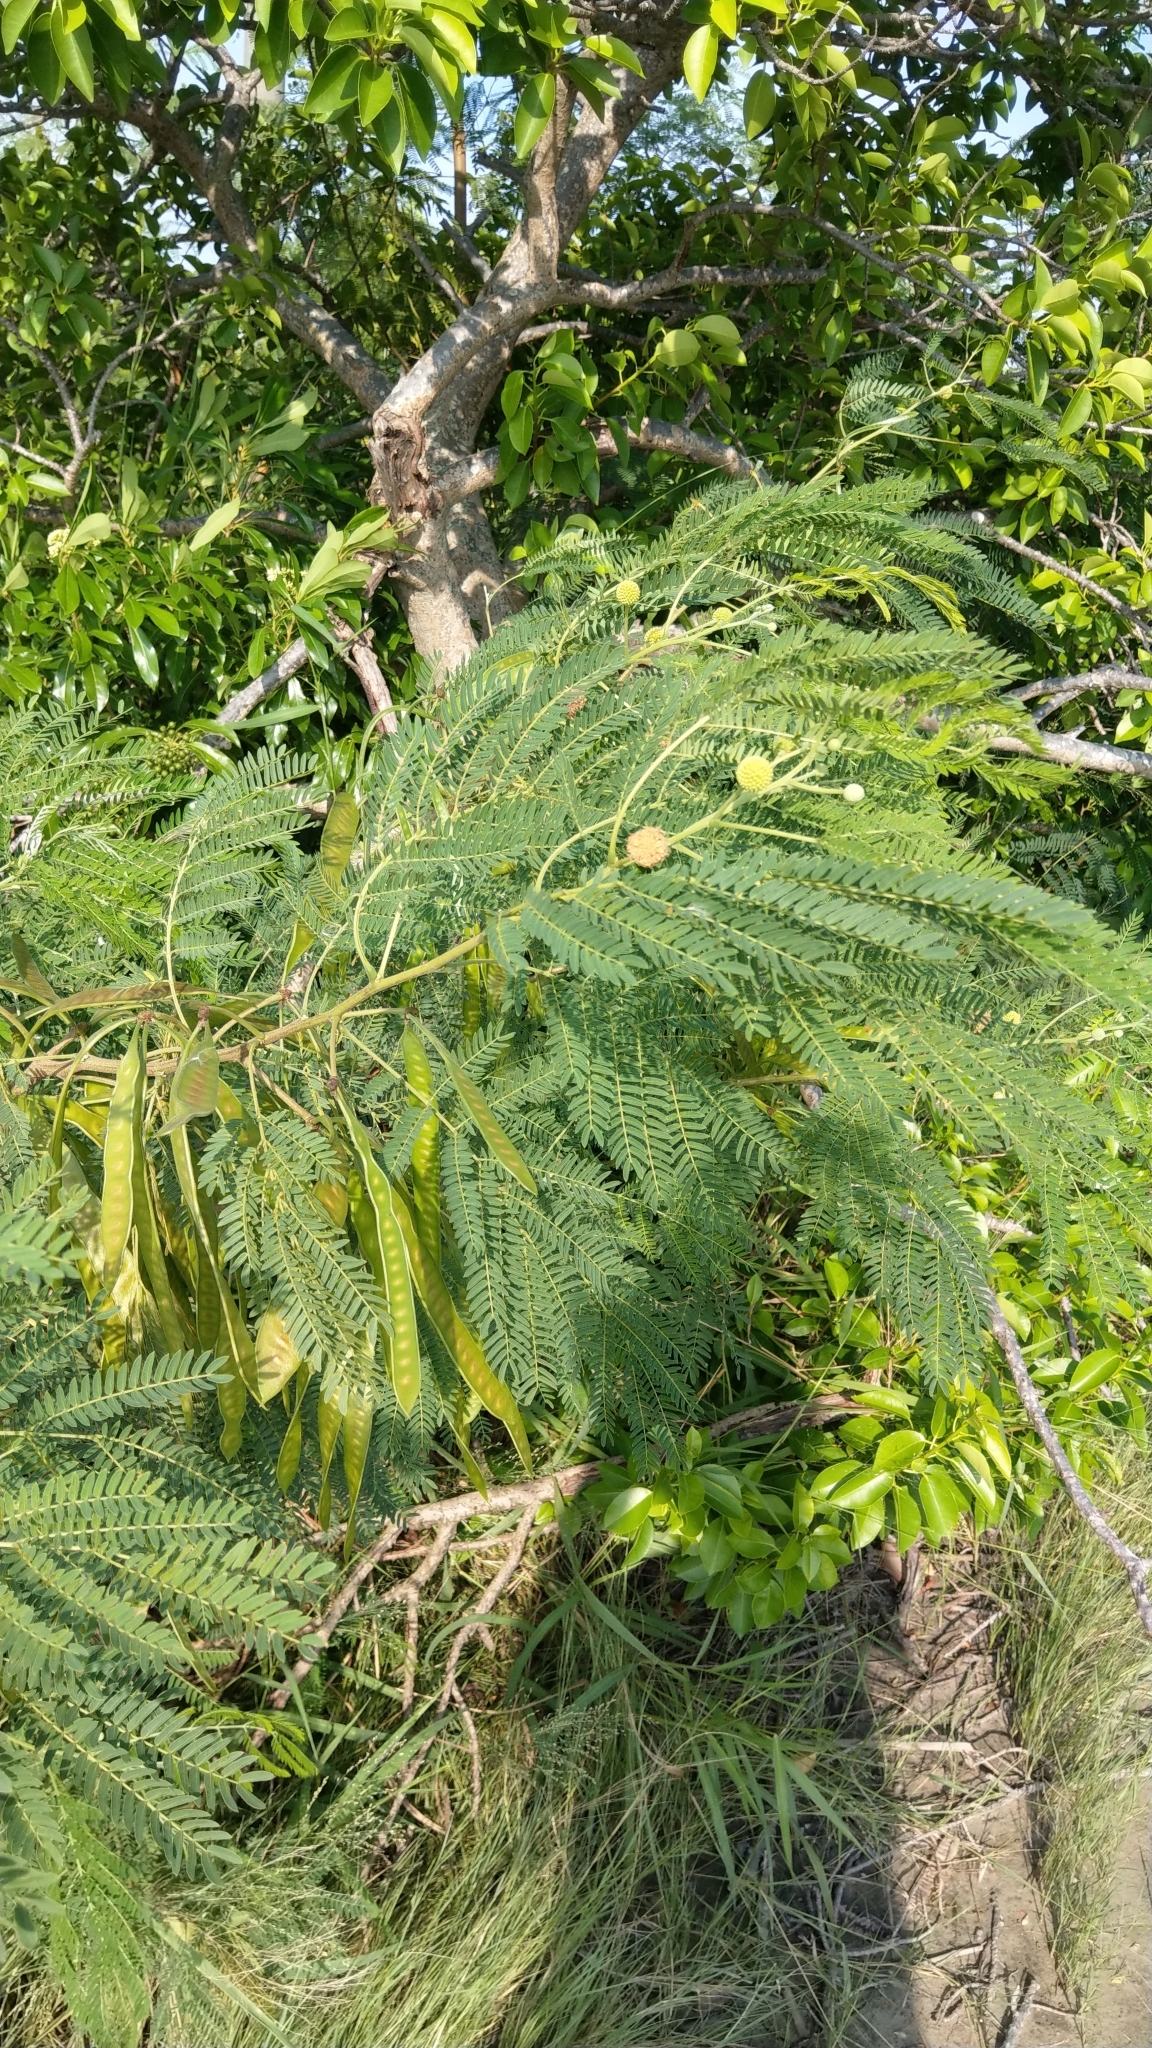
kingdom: Plantae
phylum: Tracheophyta
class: Magnoliopsida
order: Fabales
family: Fabaceae
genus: Leucaena
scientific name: Leucaena leucocephala
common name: White leadtree
